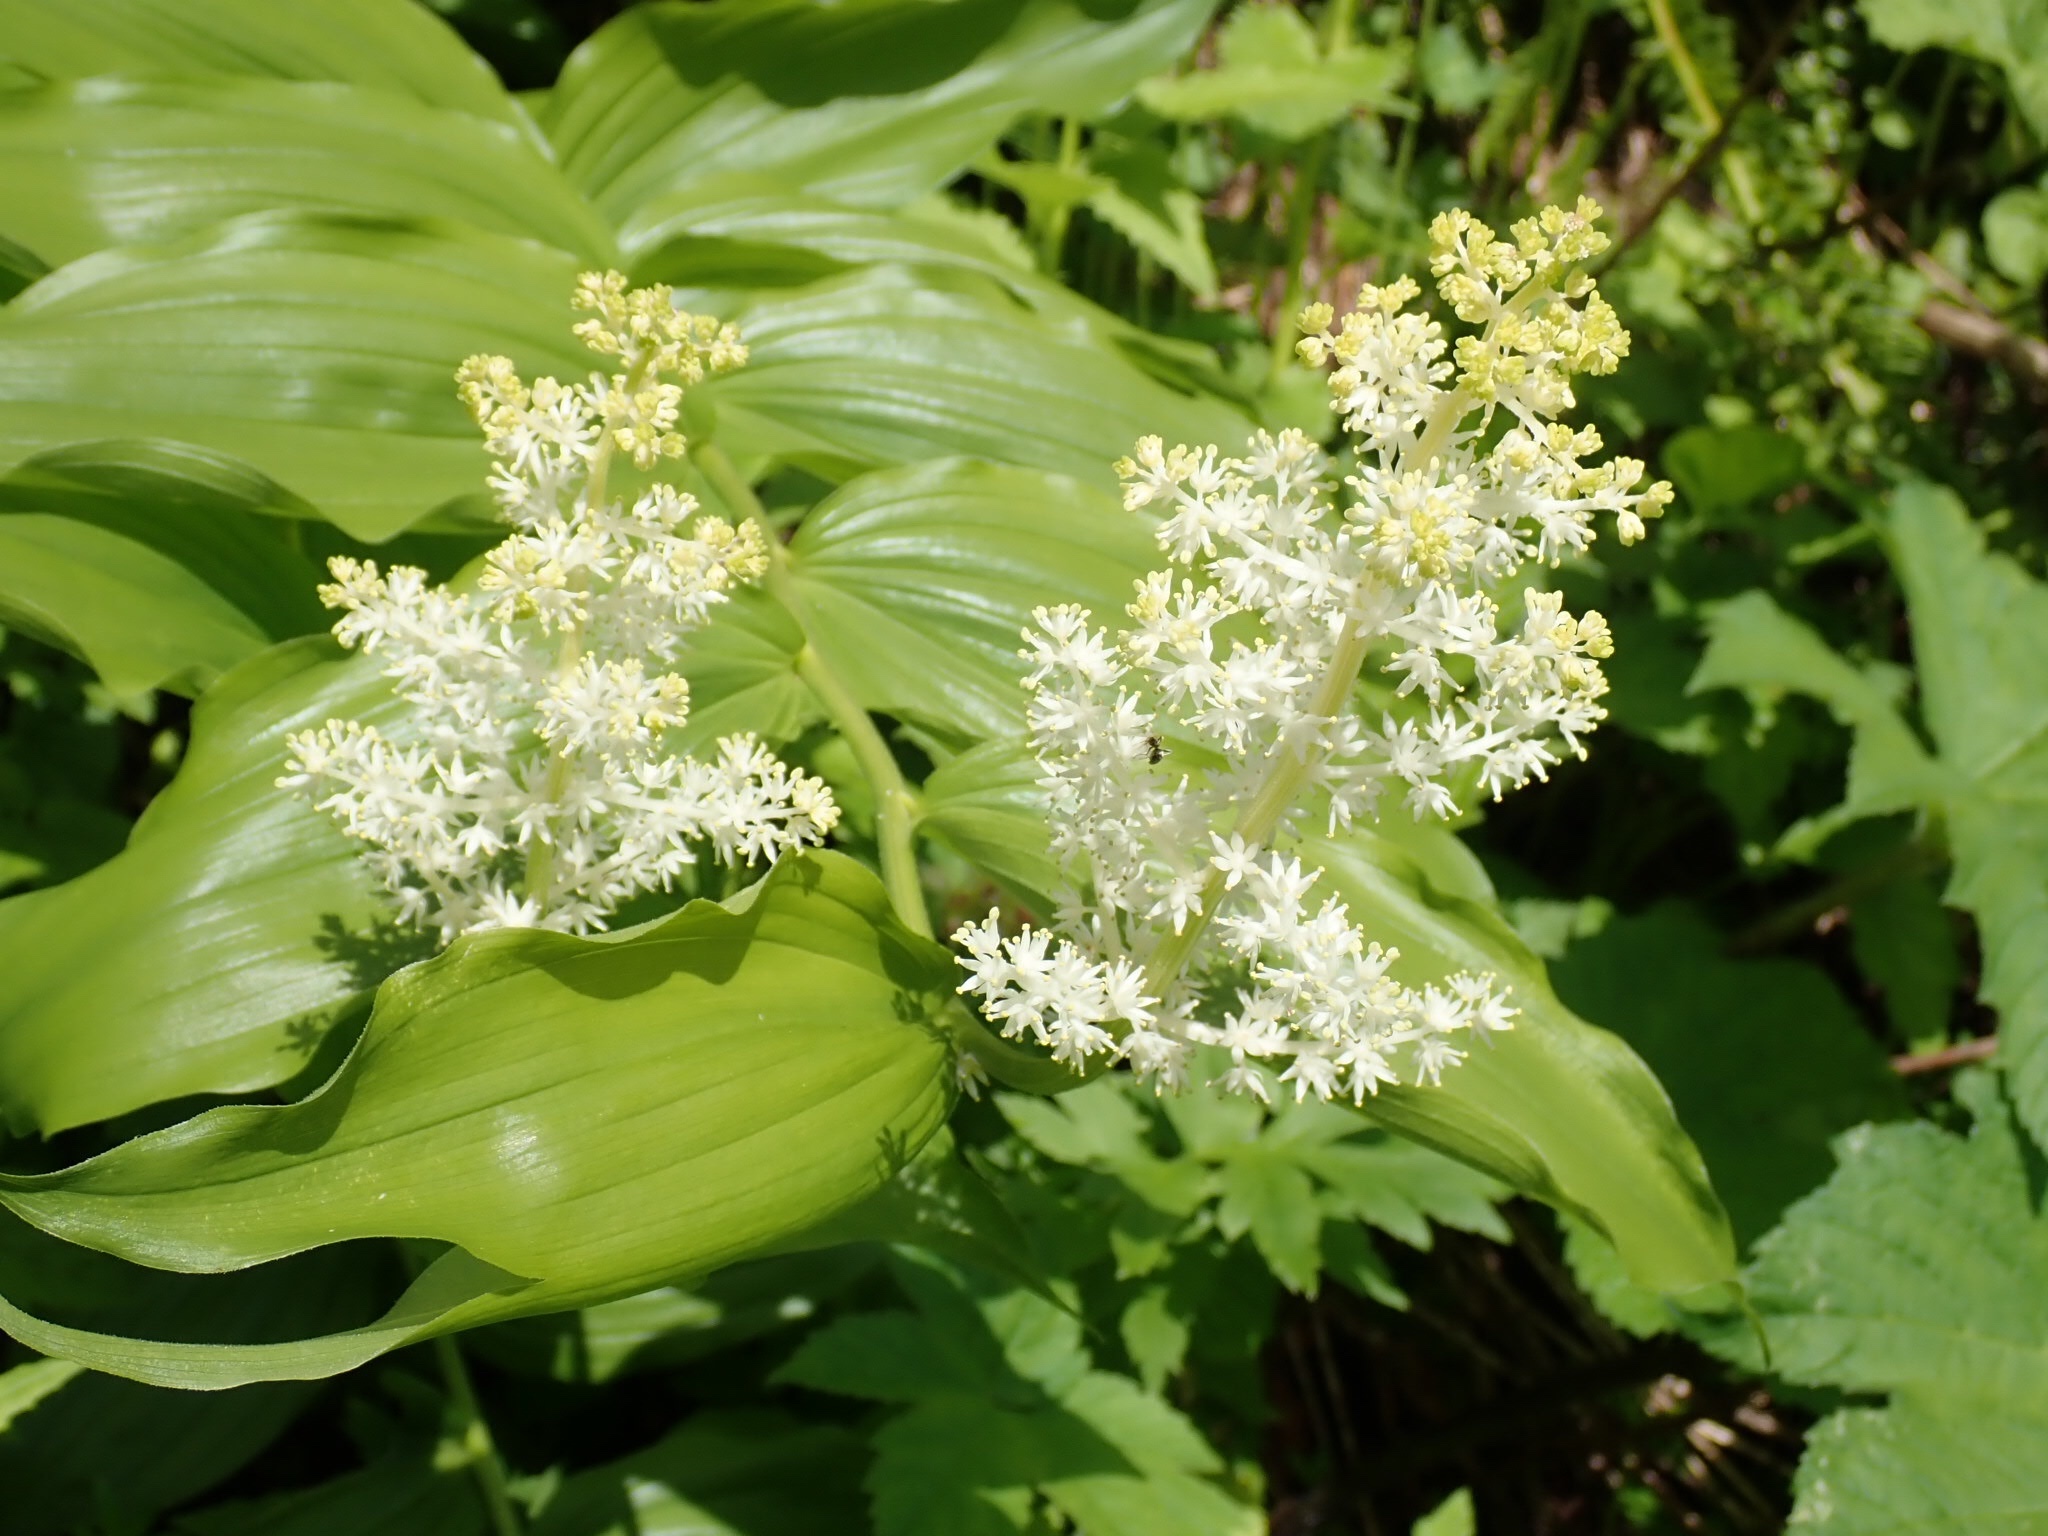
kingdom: Plantae
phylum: Tracheophyta
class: Liliopsida
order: Asparagales
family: Asparagaceae
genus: Maianthemum
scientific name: Maianthemum racemosum
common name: False spikenard
